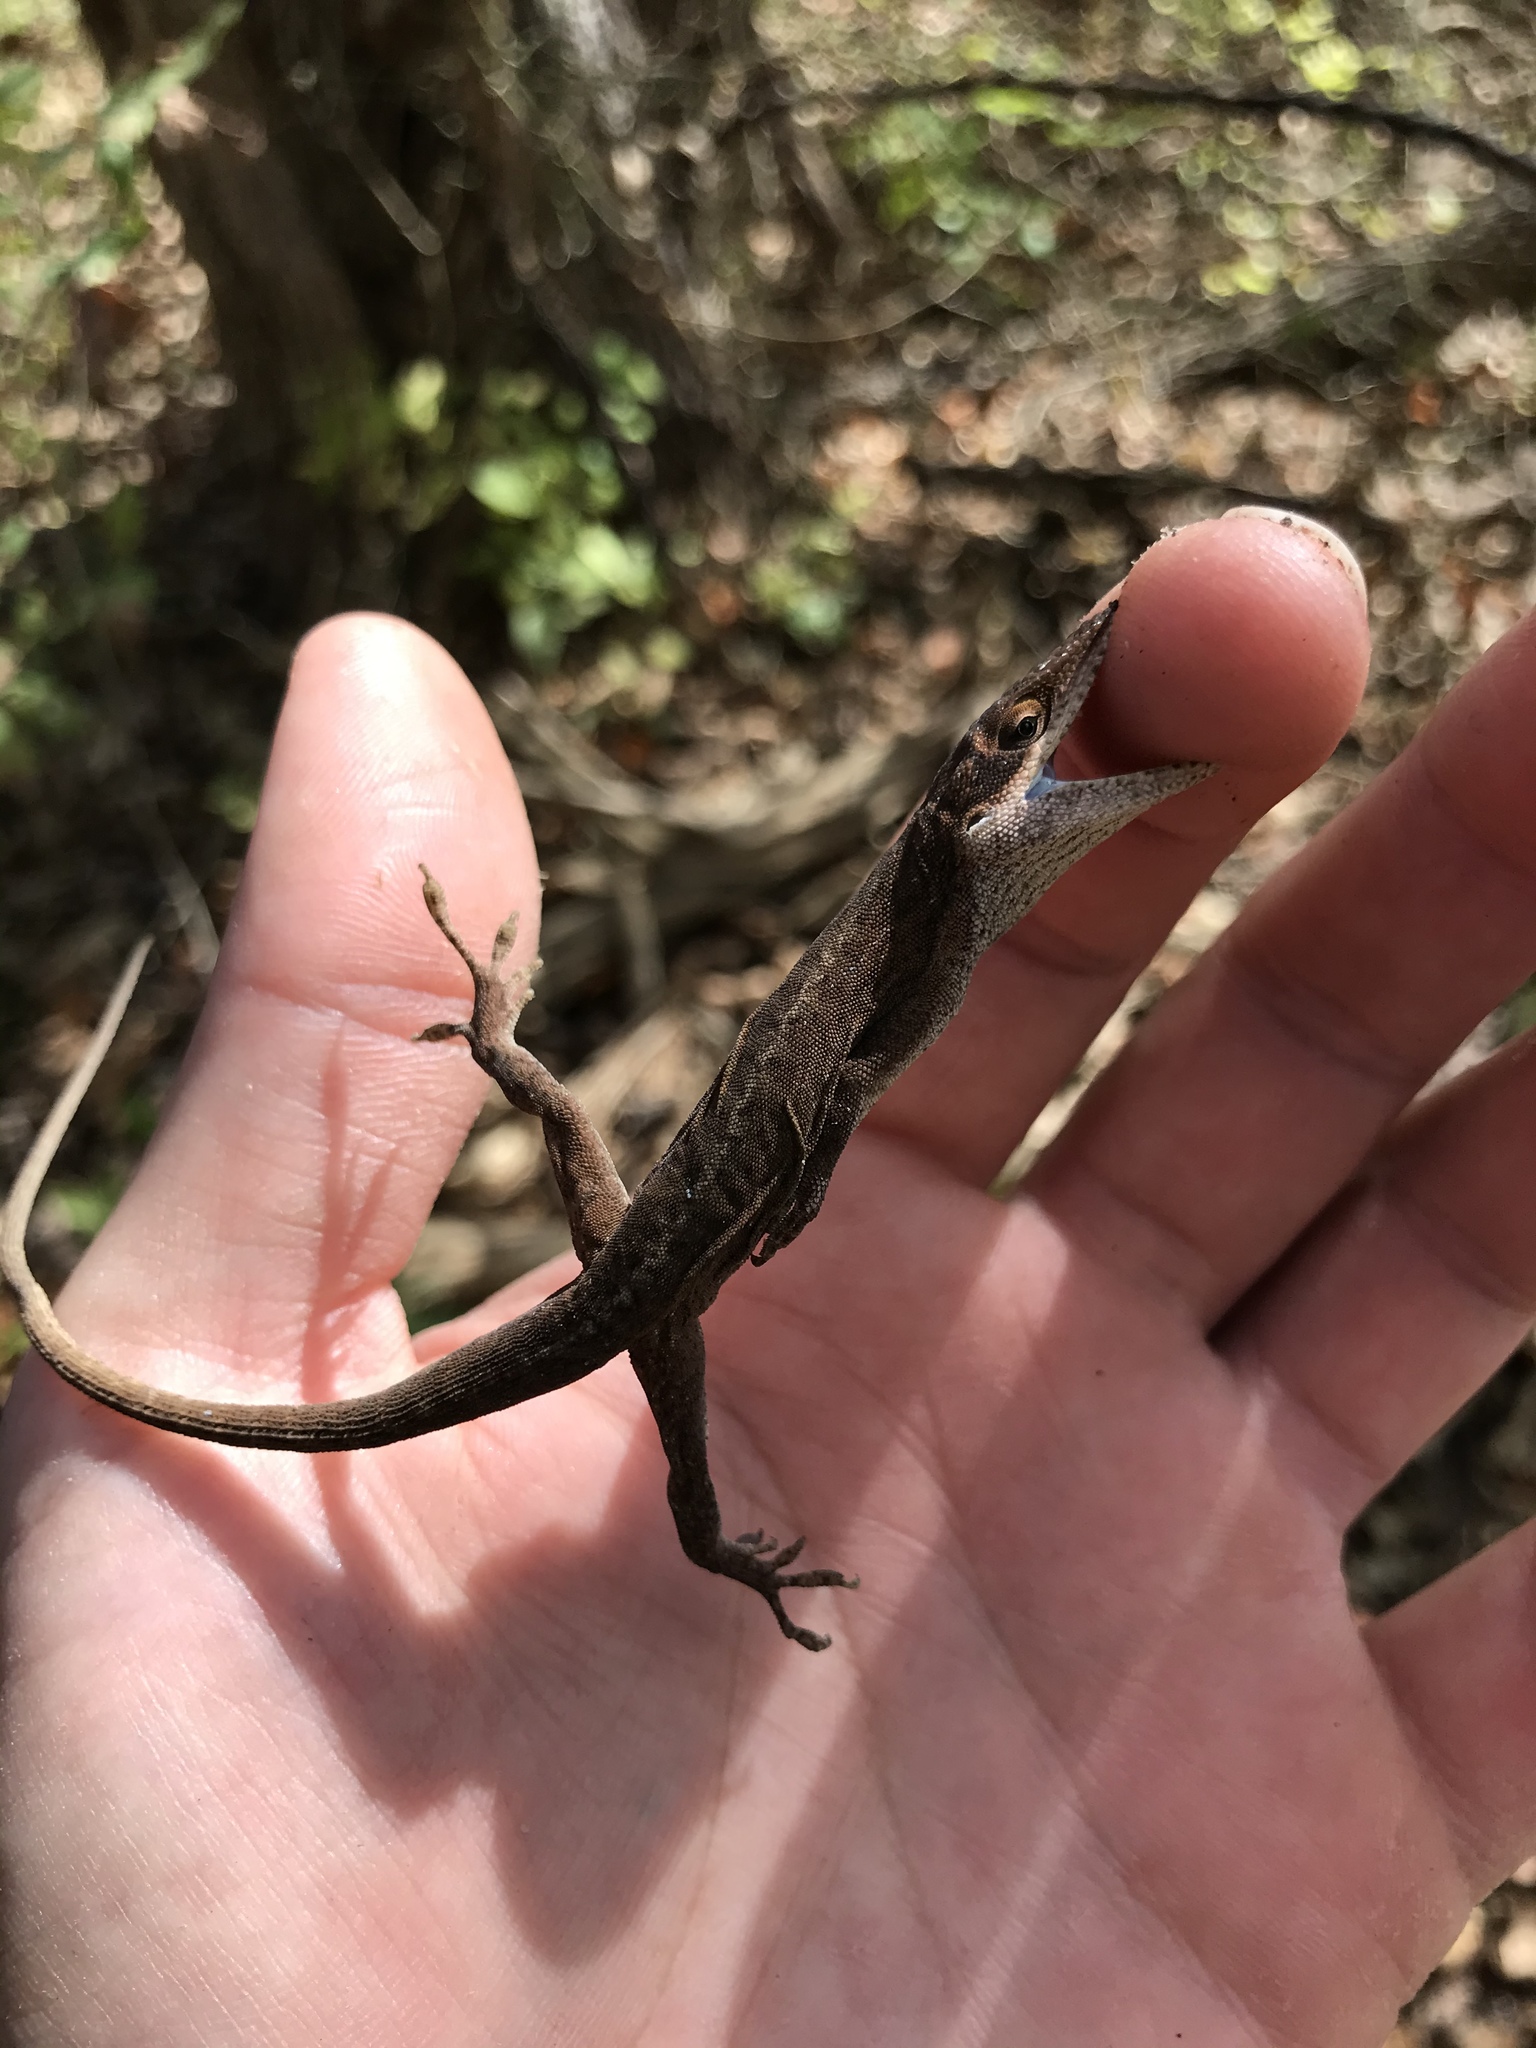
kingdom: Animalia
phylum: Chordata
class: Squamata
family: Dactyloidae
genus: Anolis
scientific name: Anolis carolinensis
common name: Green anole
